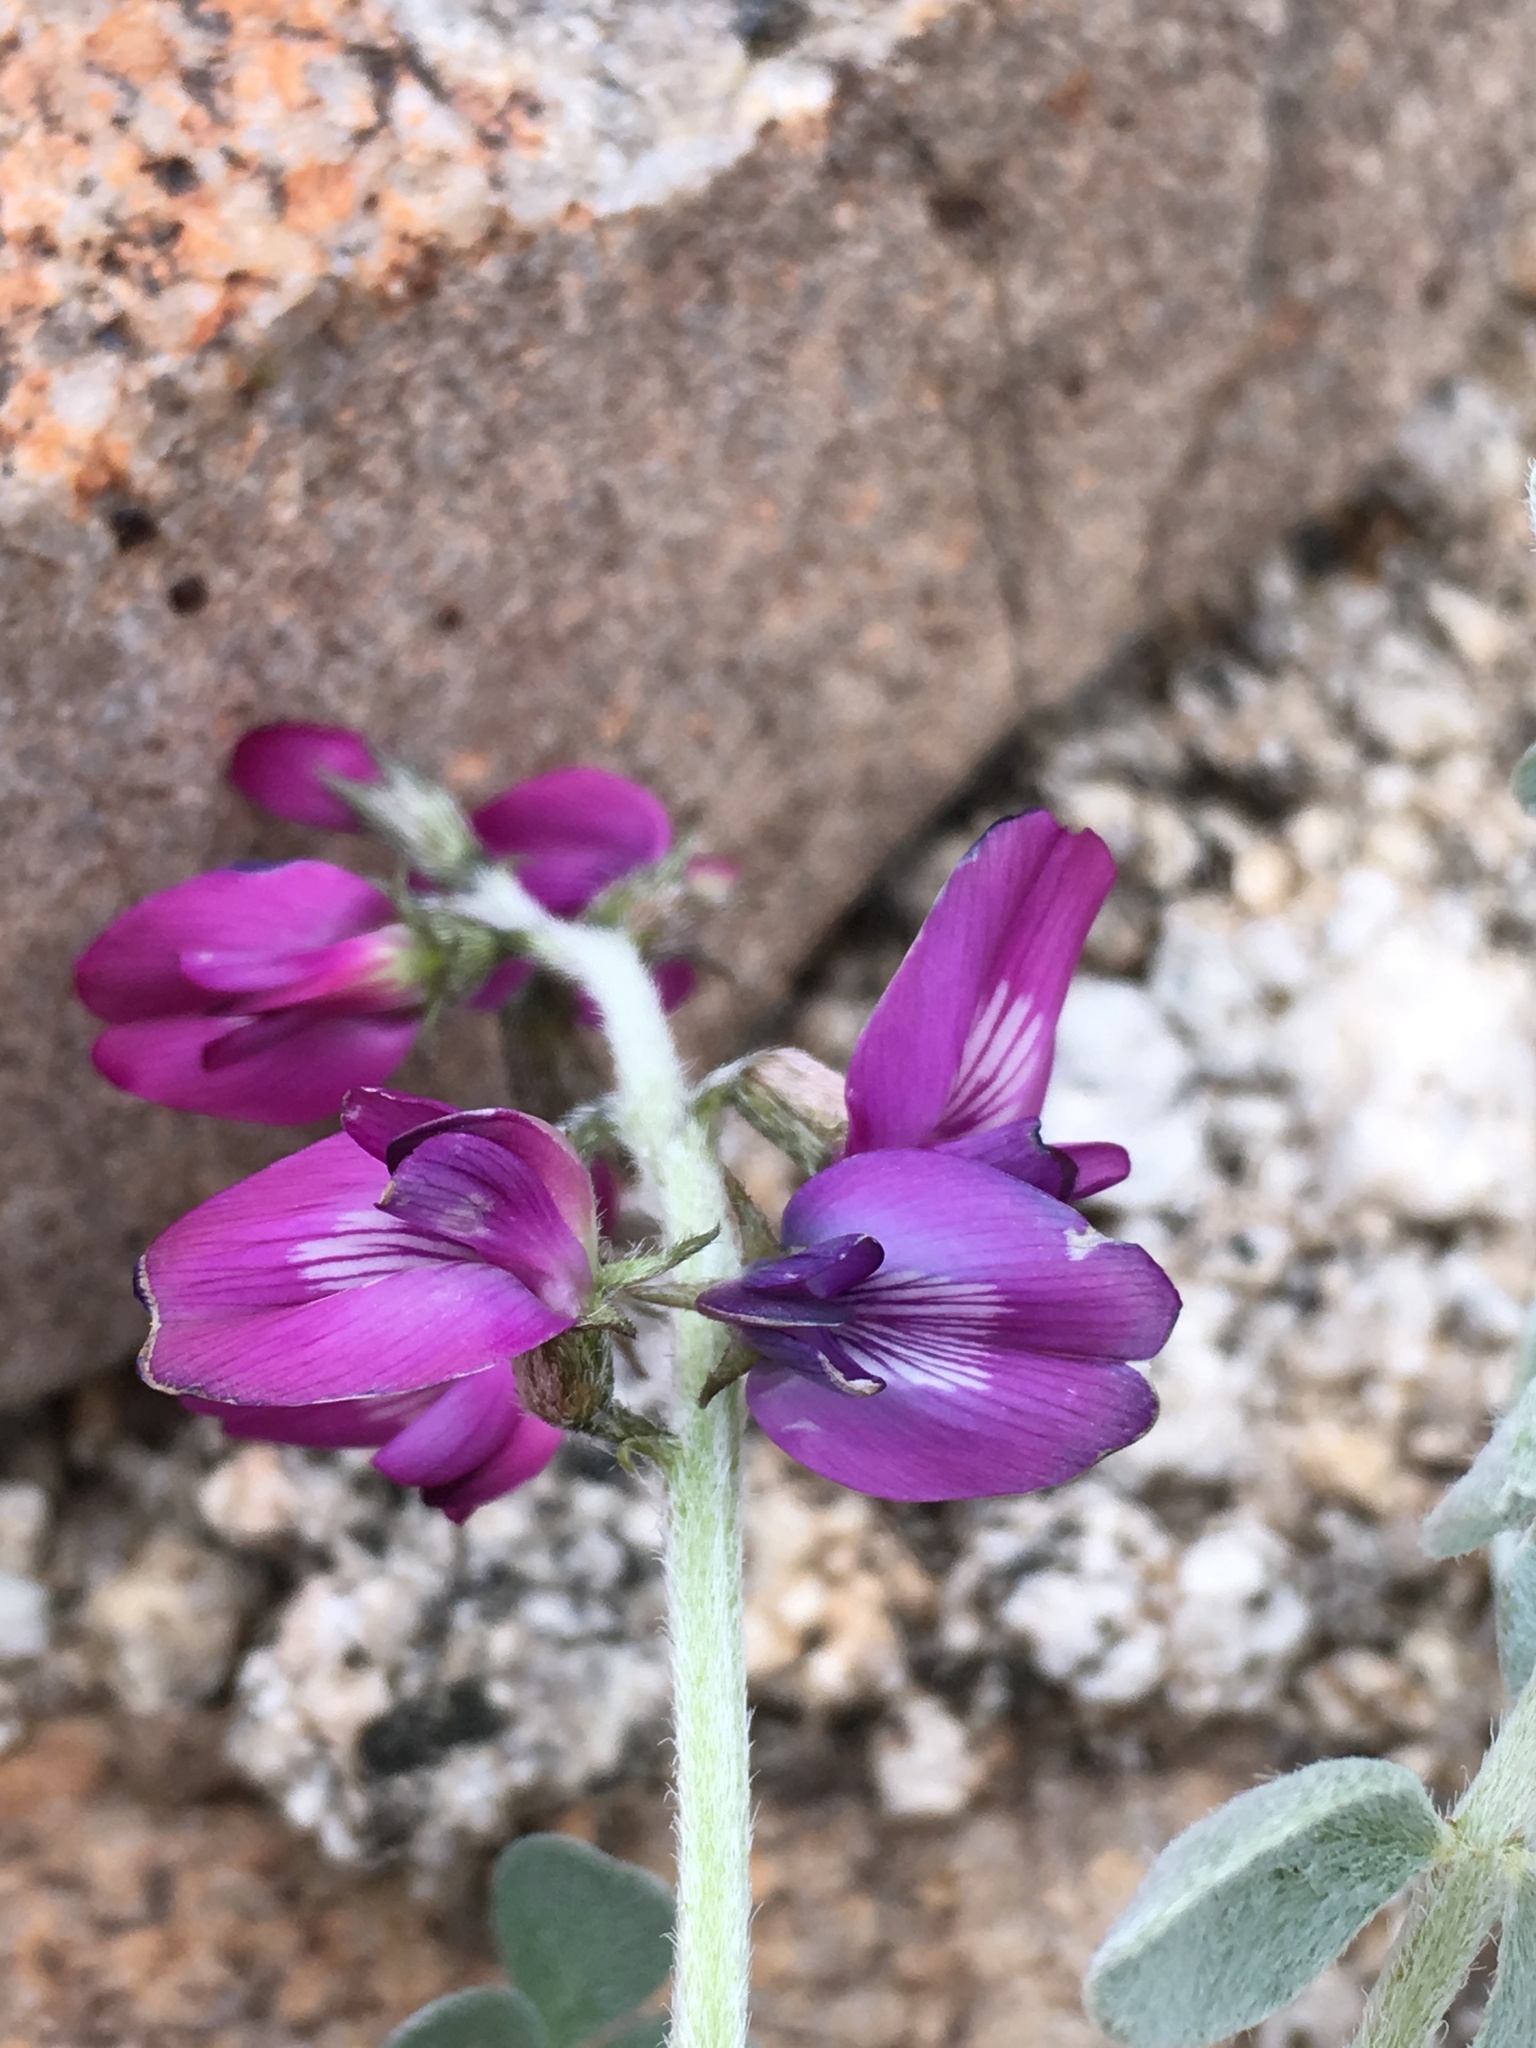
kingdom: Plantae
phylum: Tracheophyta
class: Magnoliopsida
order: Fabales
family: Fabaceae
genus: Astragalus
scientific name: Astragalus mohavensis
